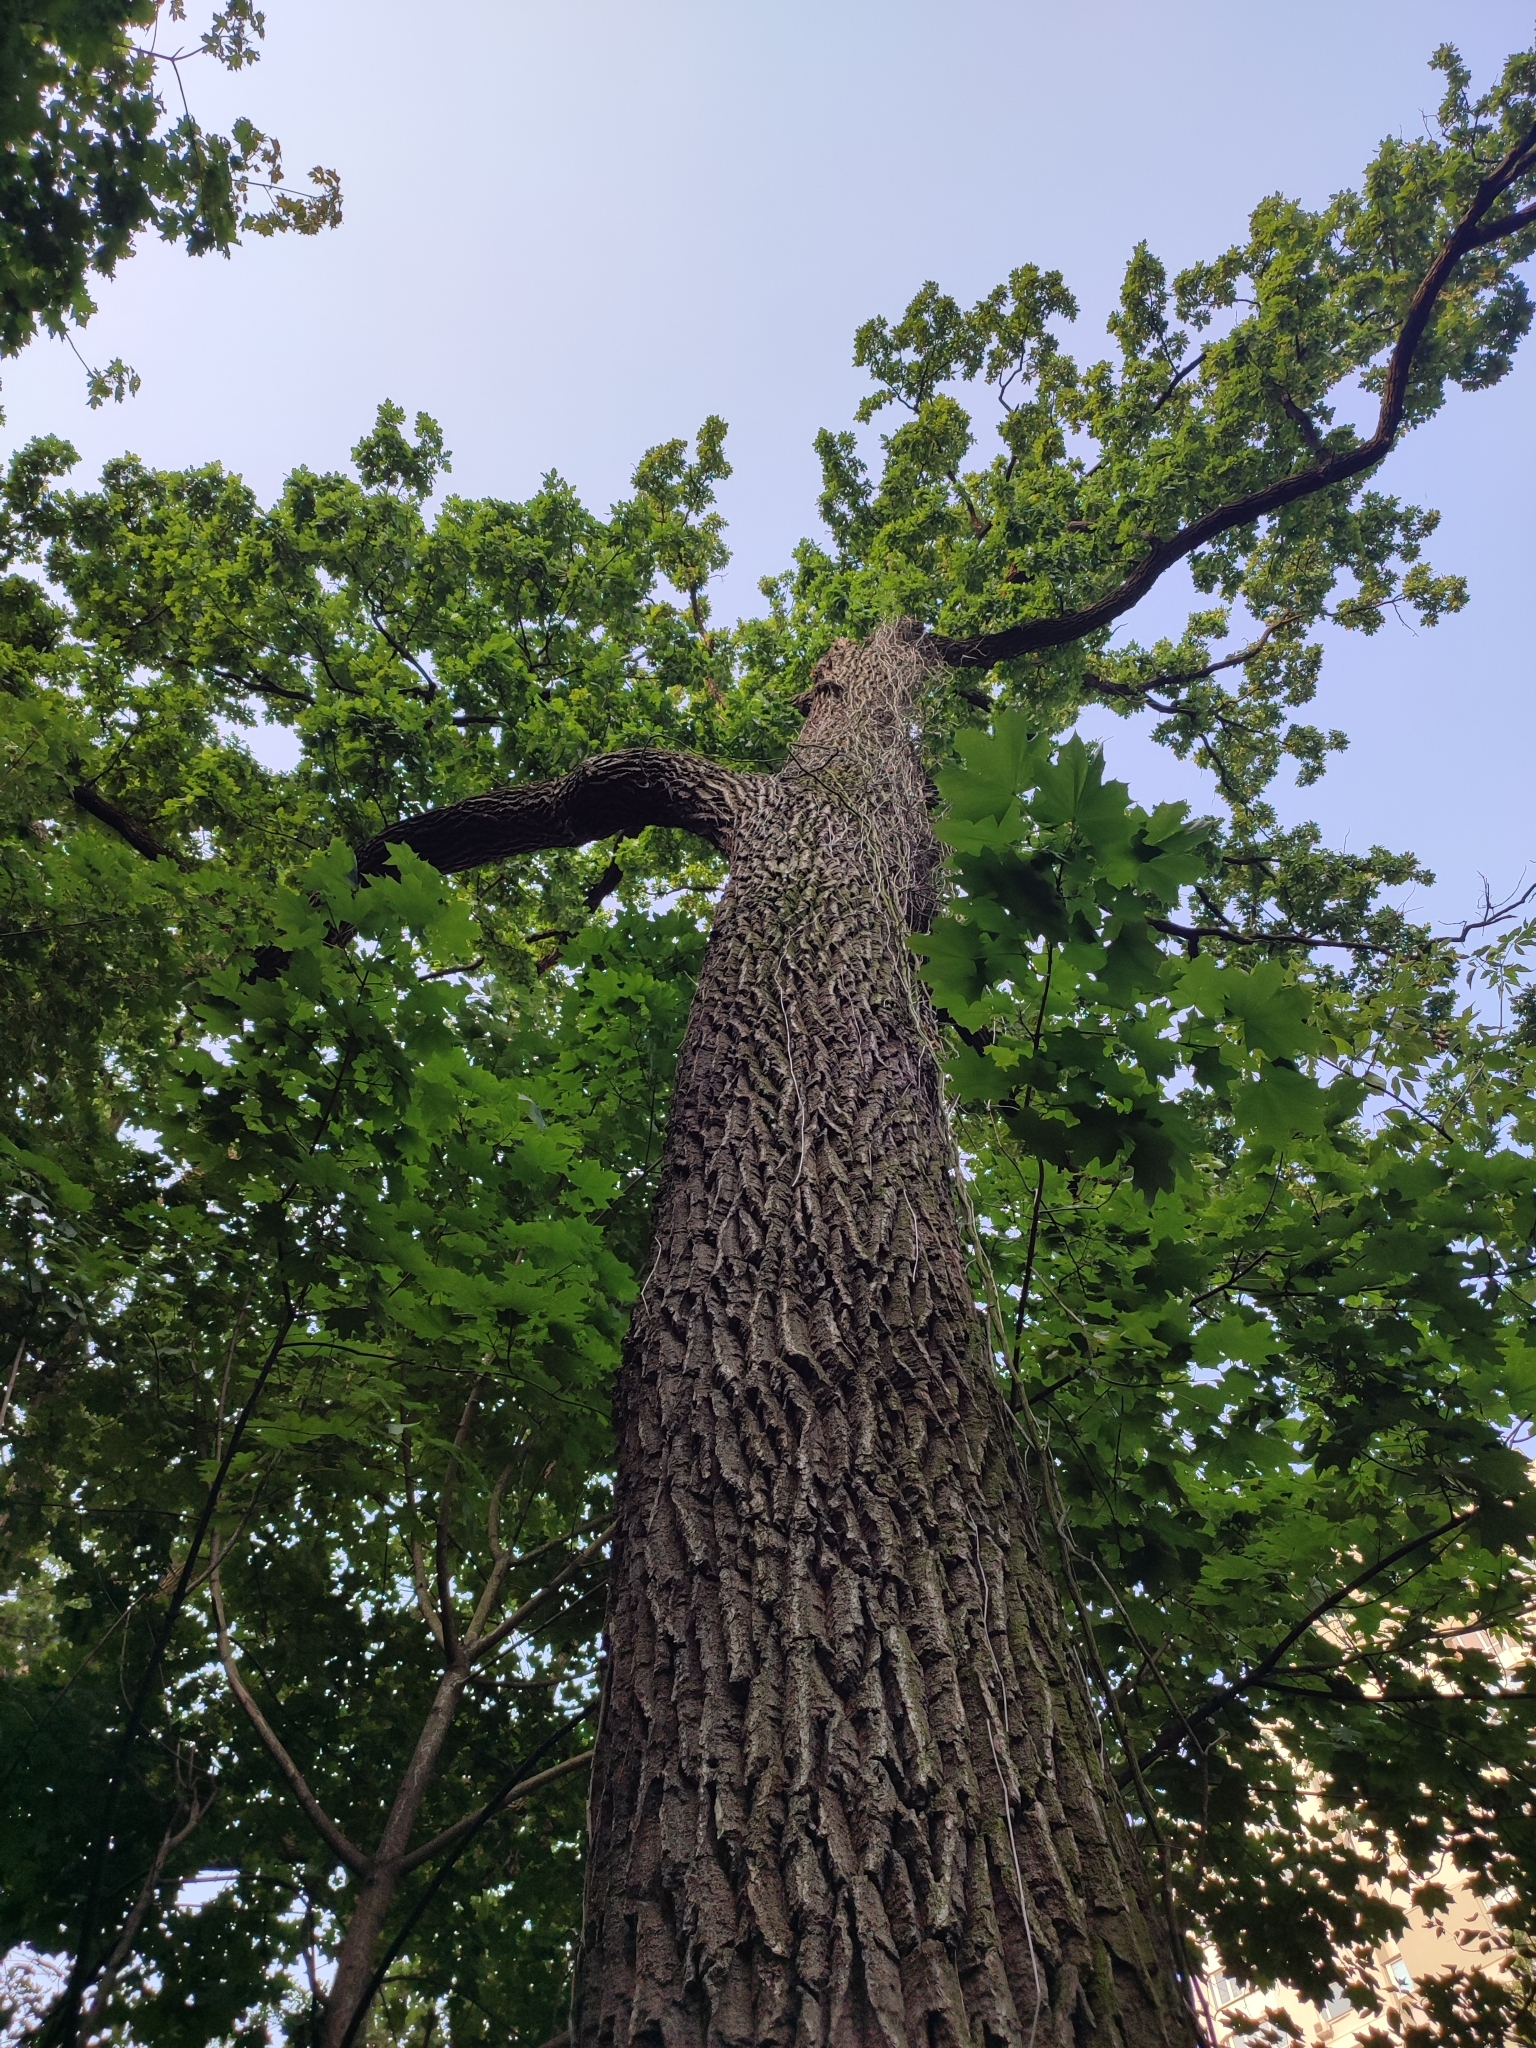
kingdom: Plantae
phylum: Tracheophyta
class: Magnoliopsida
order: Fagales
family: Fagaceae
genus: Quercus
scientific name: Quercus robur
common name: Pedunculate oak
